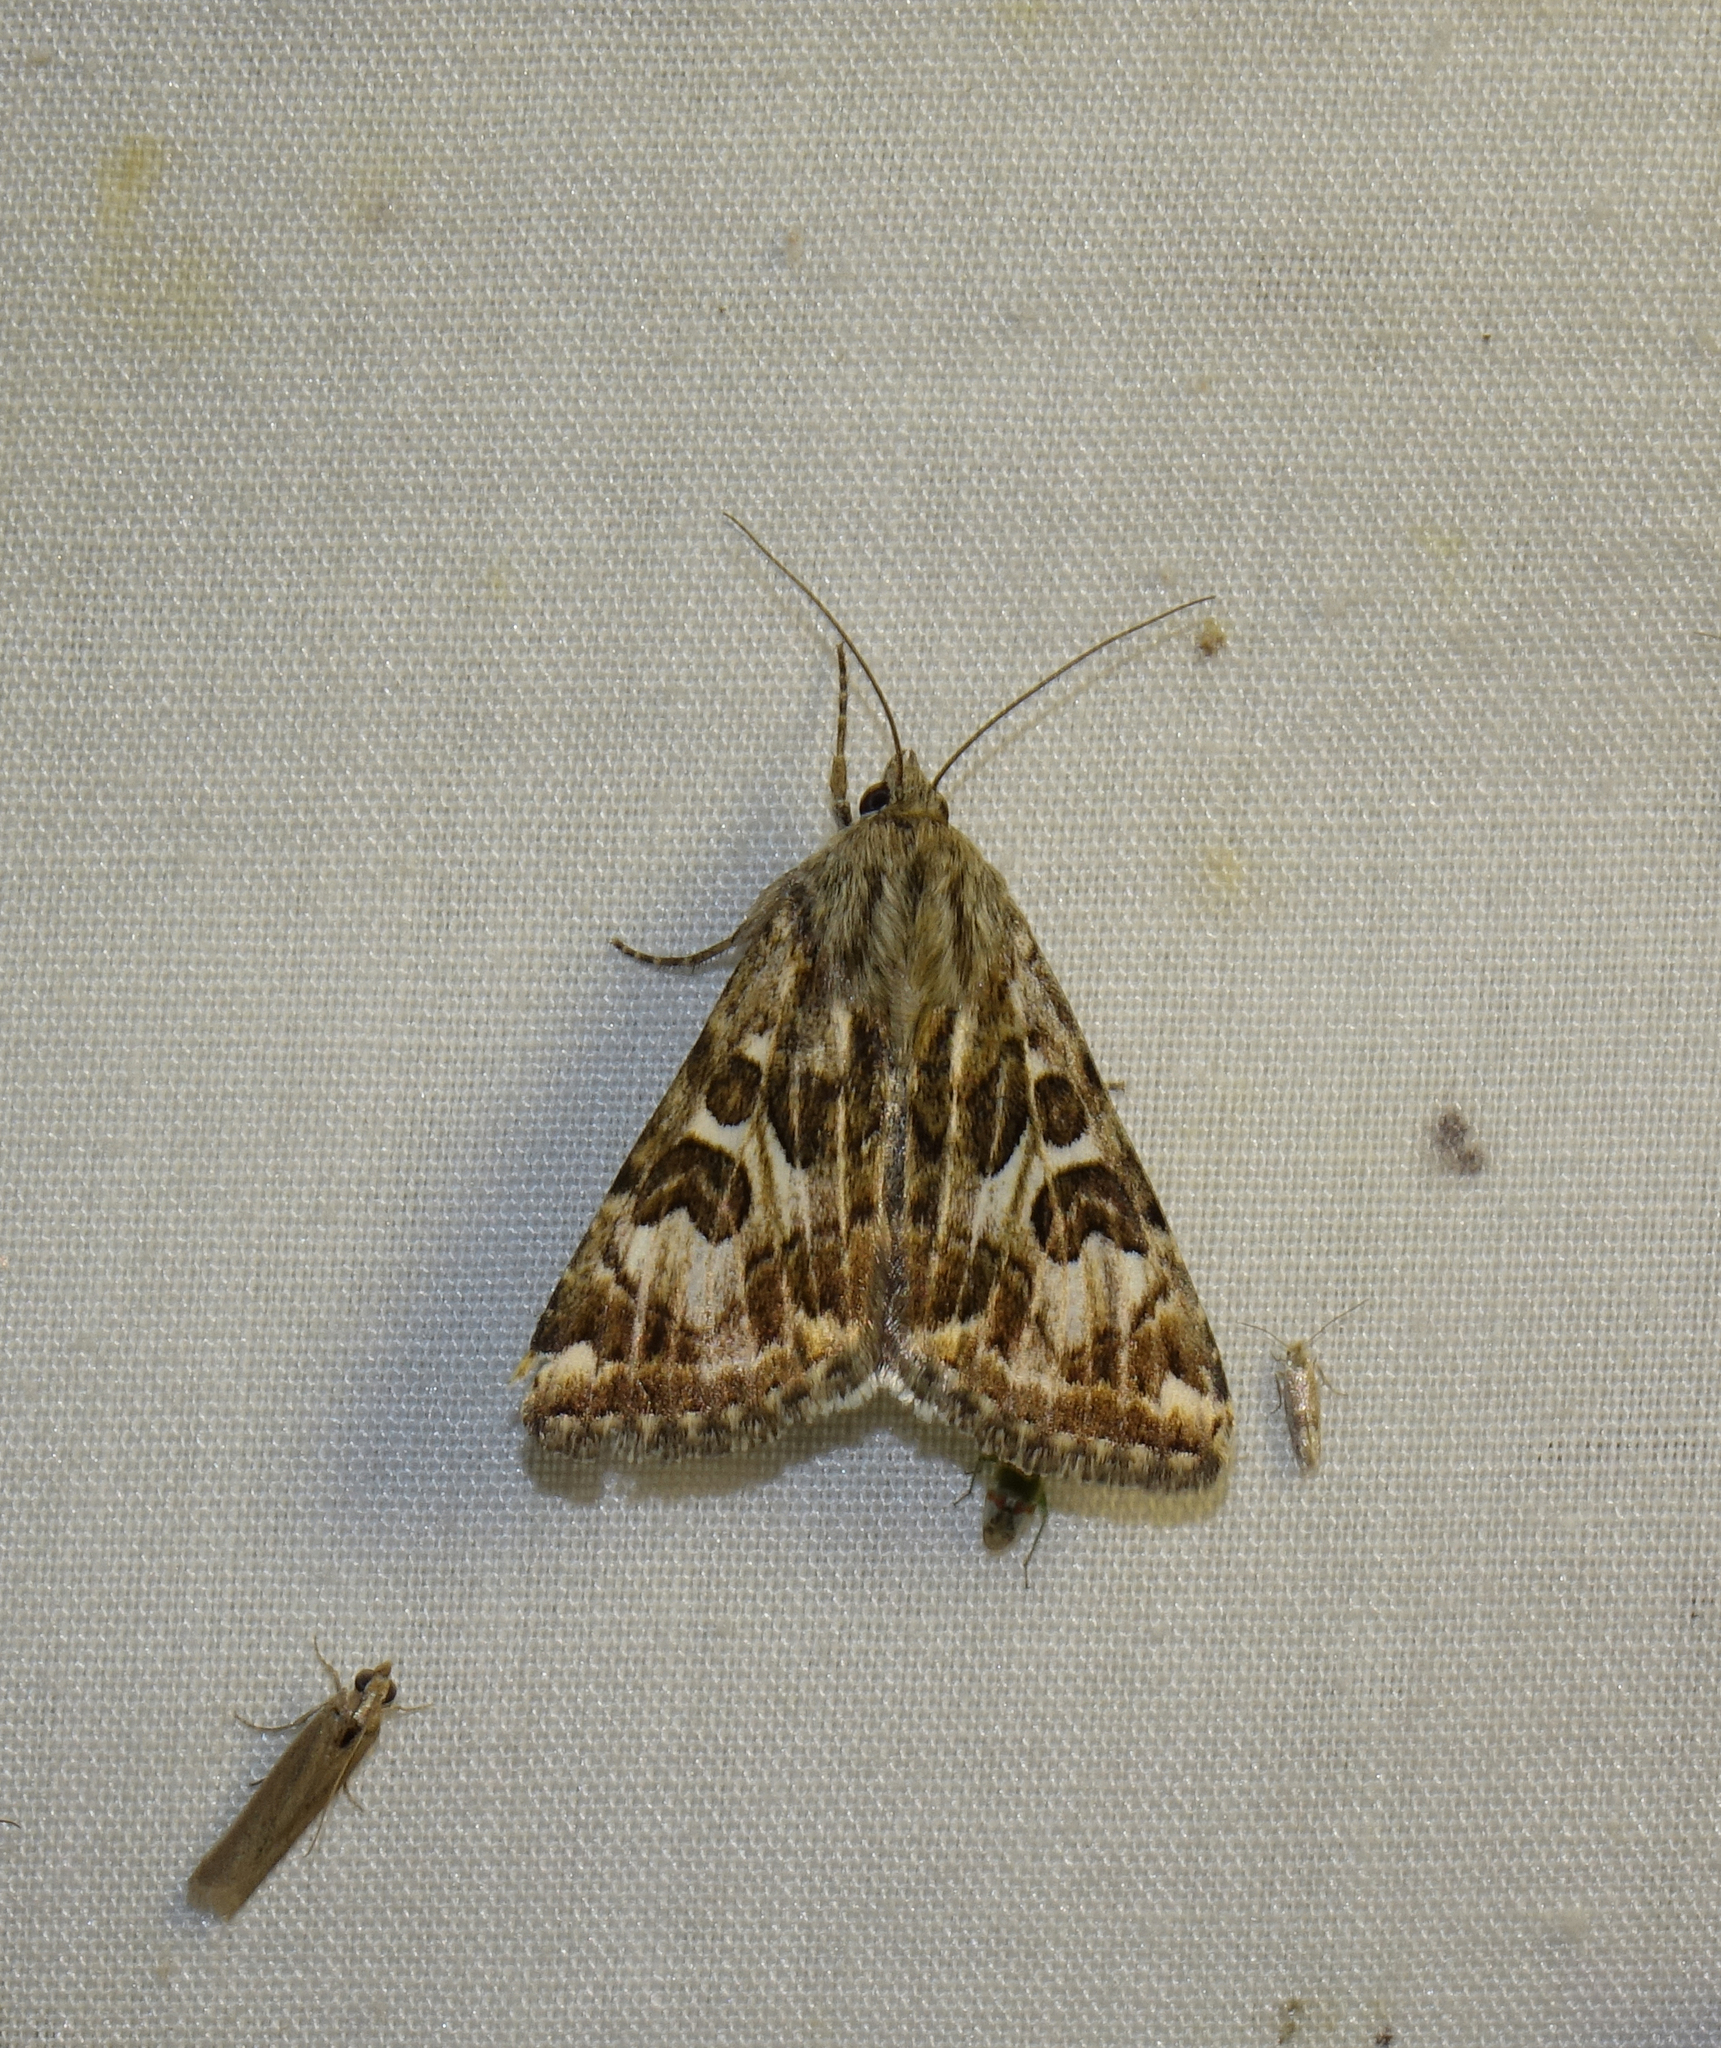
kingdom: Animalia
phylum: Arthropoda
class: Insecta
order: Lepidoptera
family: Noctuidae
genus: Protoschinia
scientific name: Protoschinia scutosa
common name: Spotted clover
